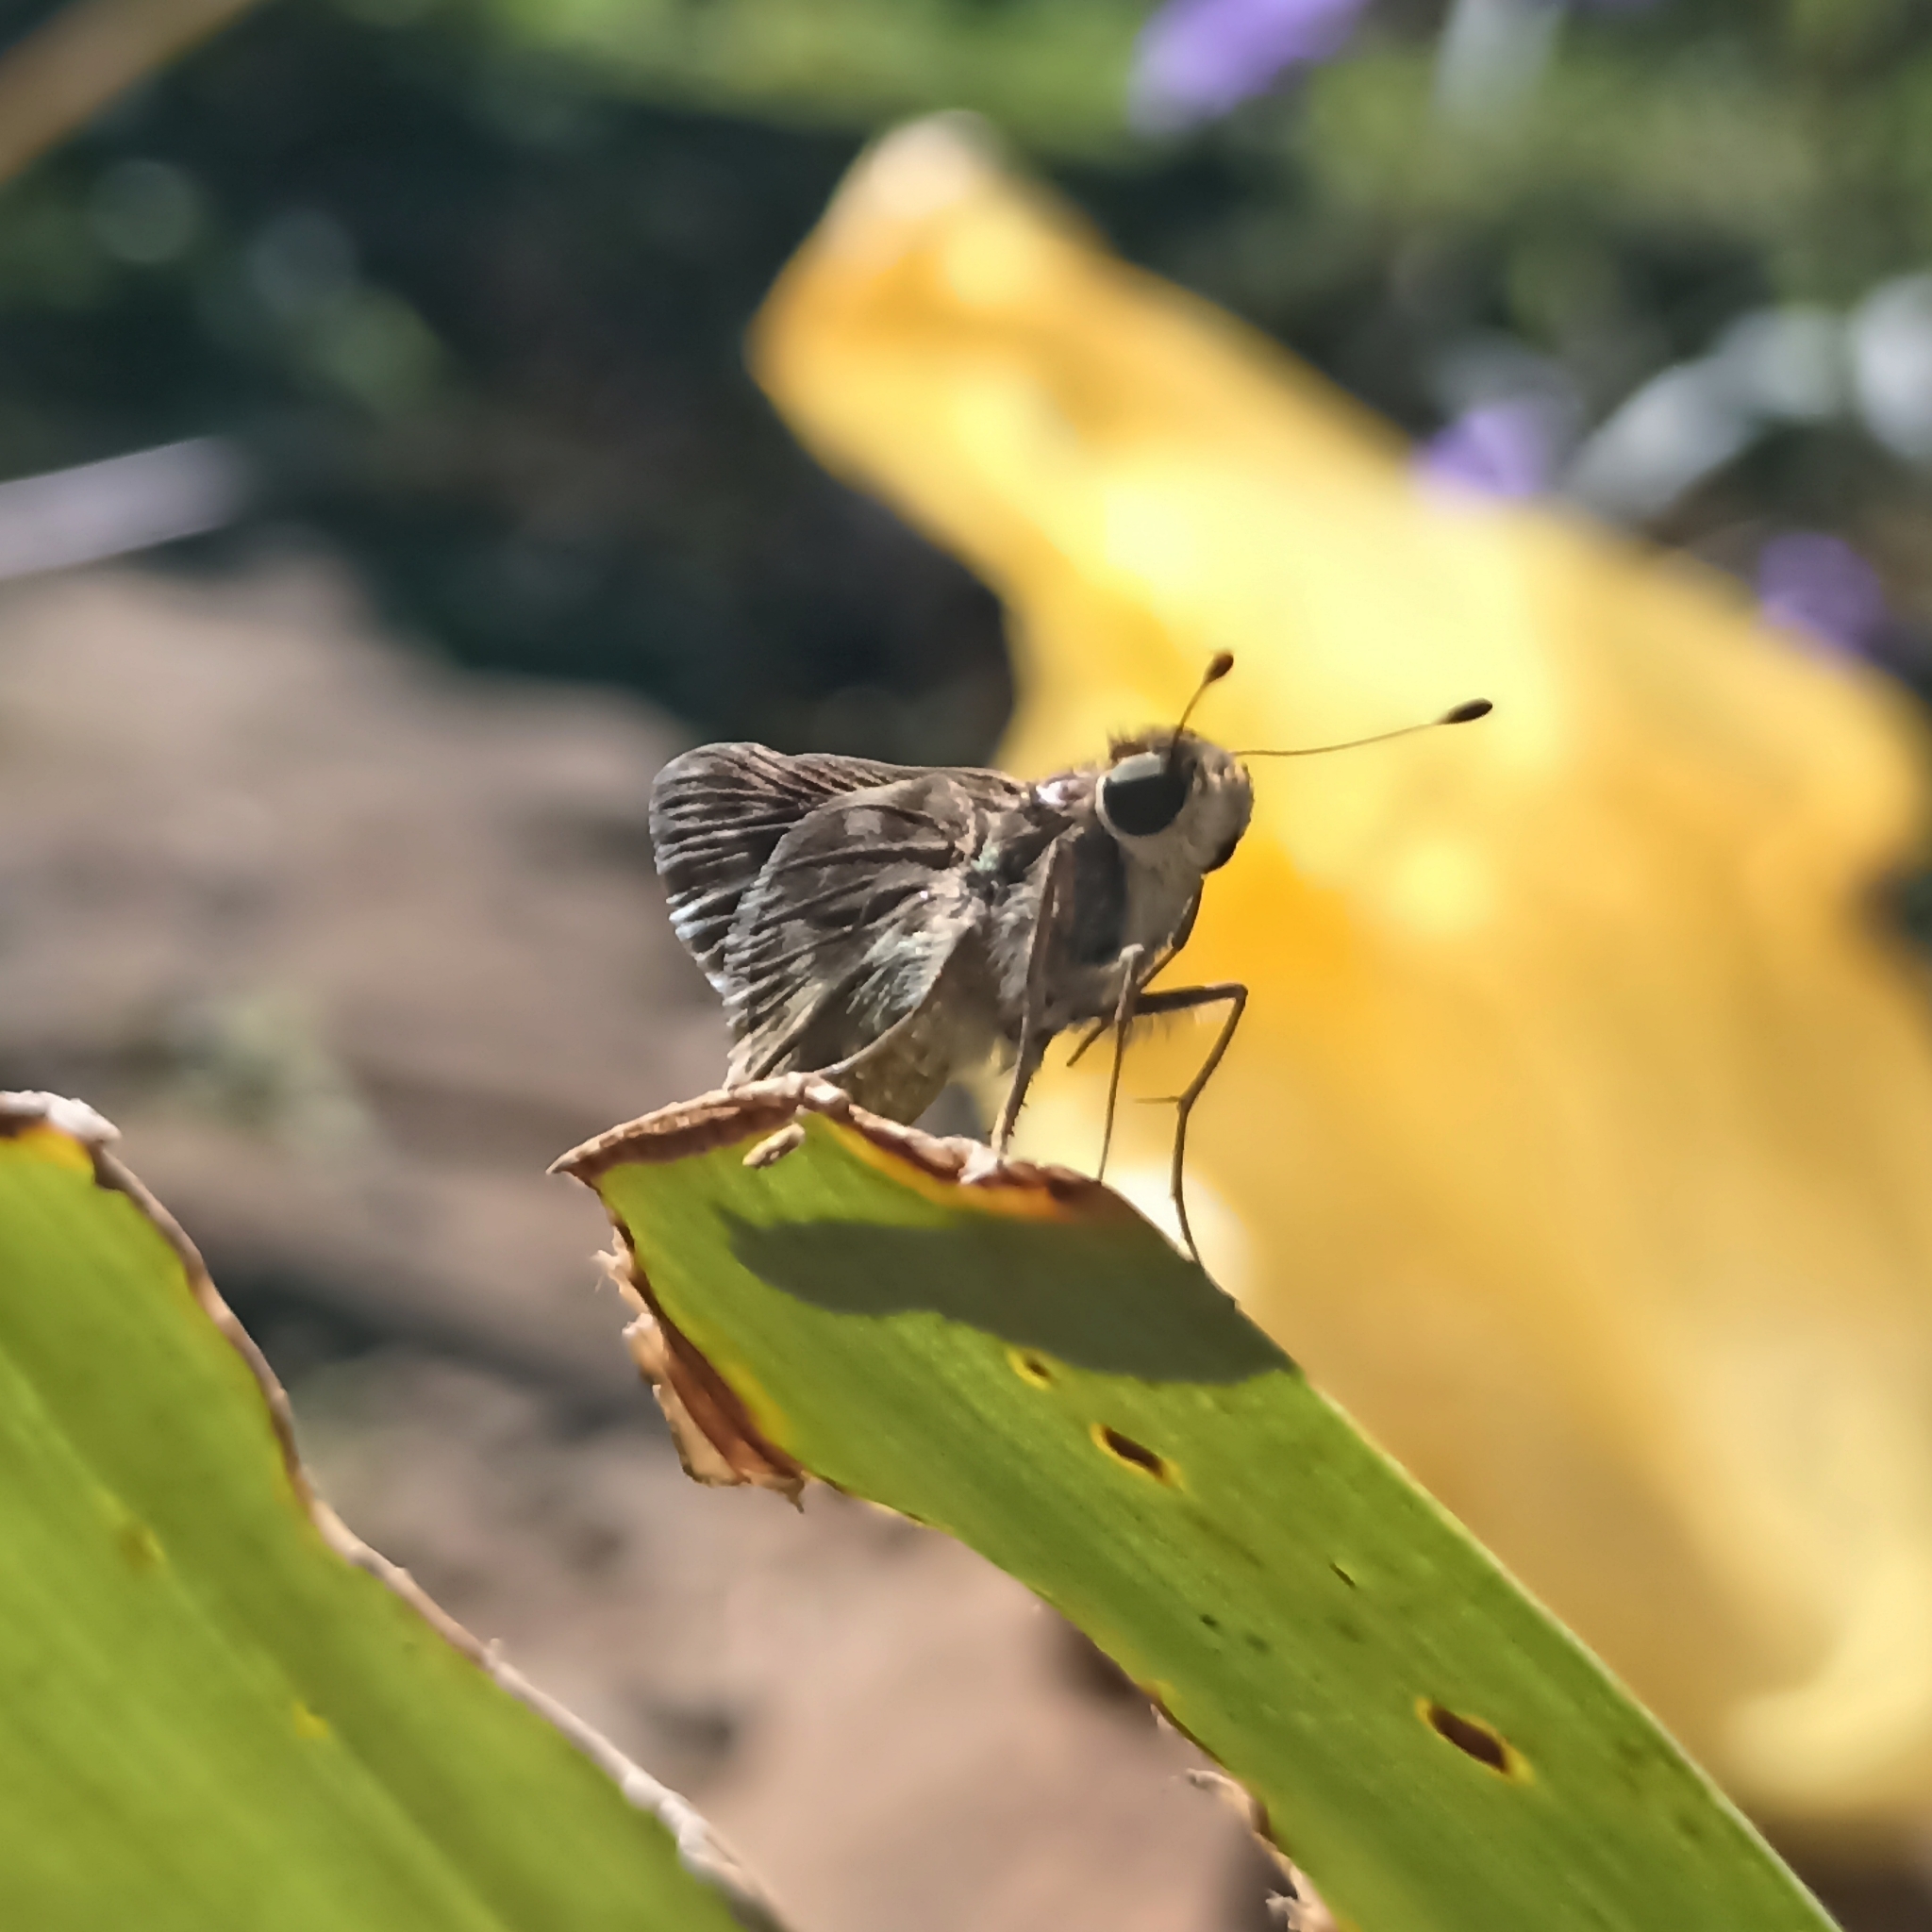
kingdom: Animalia
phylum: Arthropoda
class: Insecta
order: Lepidoptera
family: Hesperiidae
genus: Pompeius
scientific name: Pompeius pompeius
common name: Pompeius skipper
